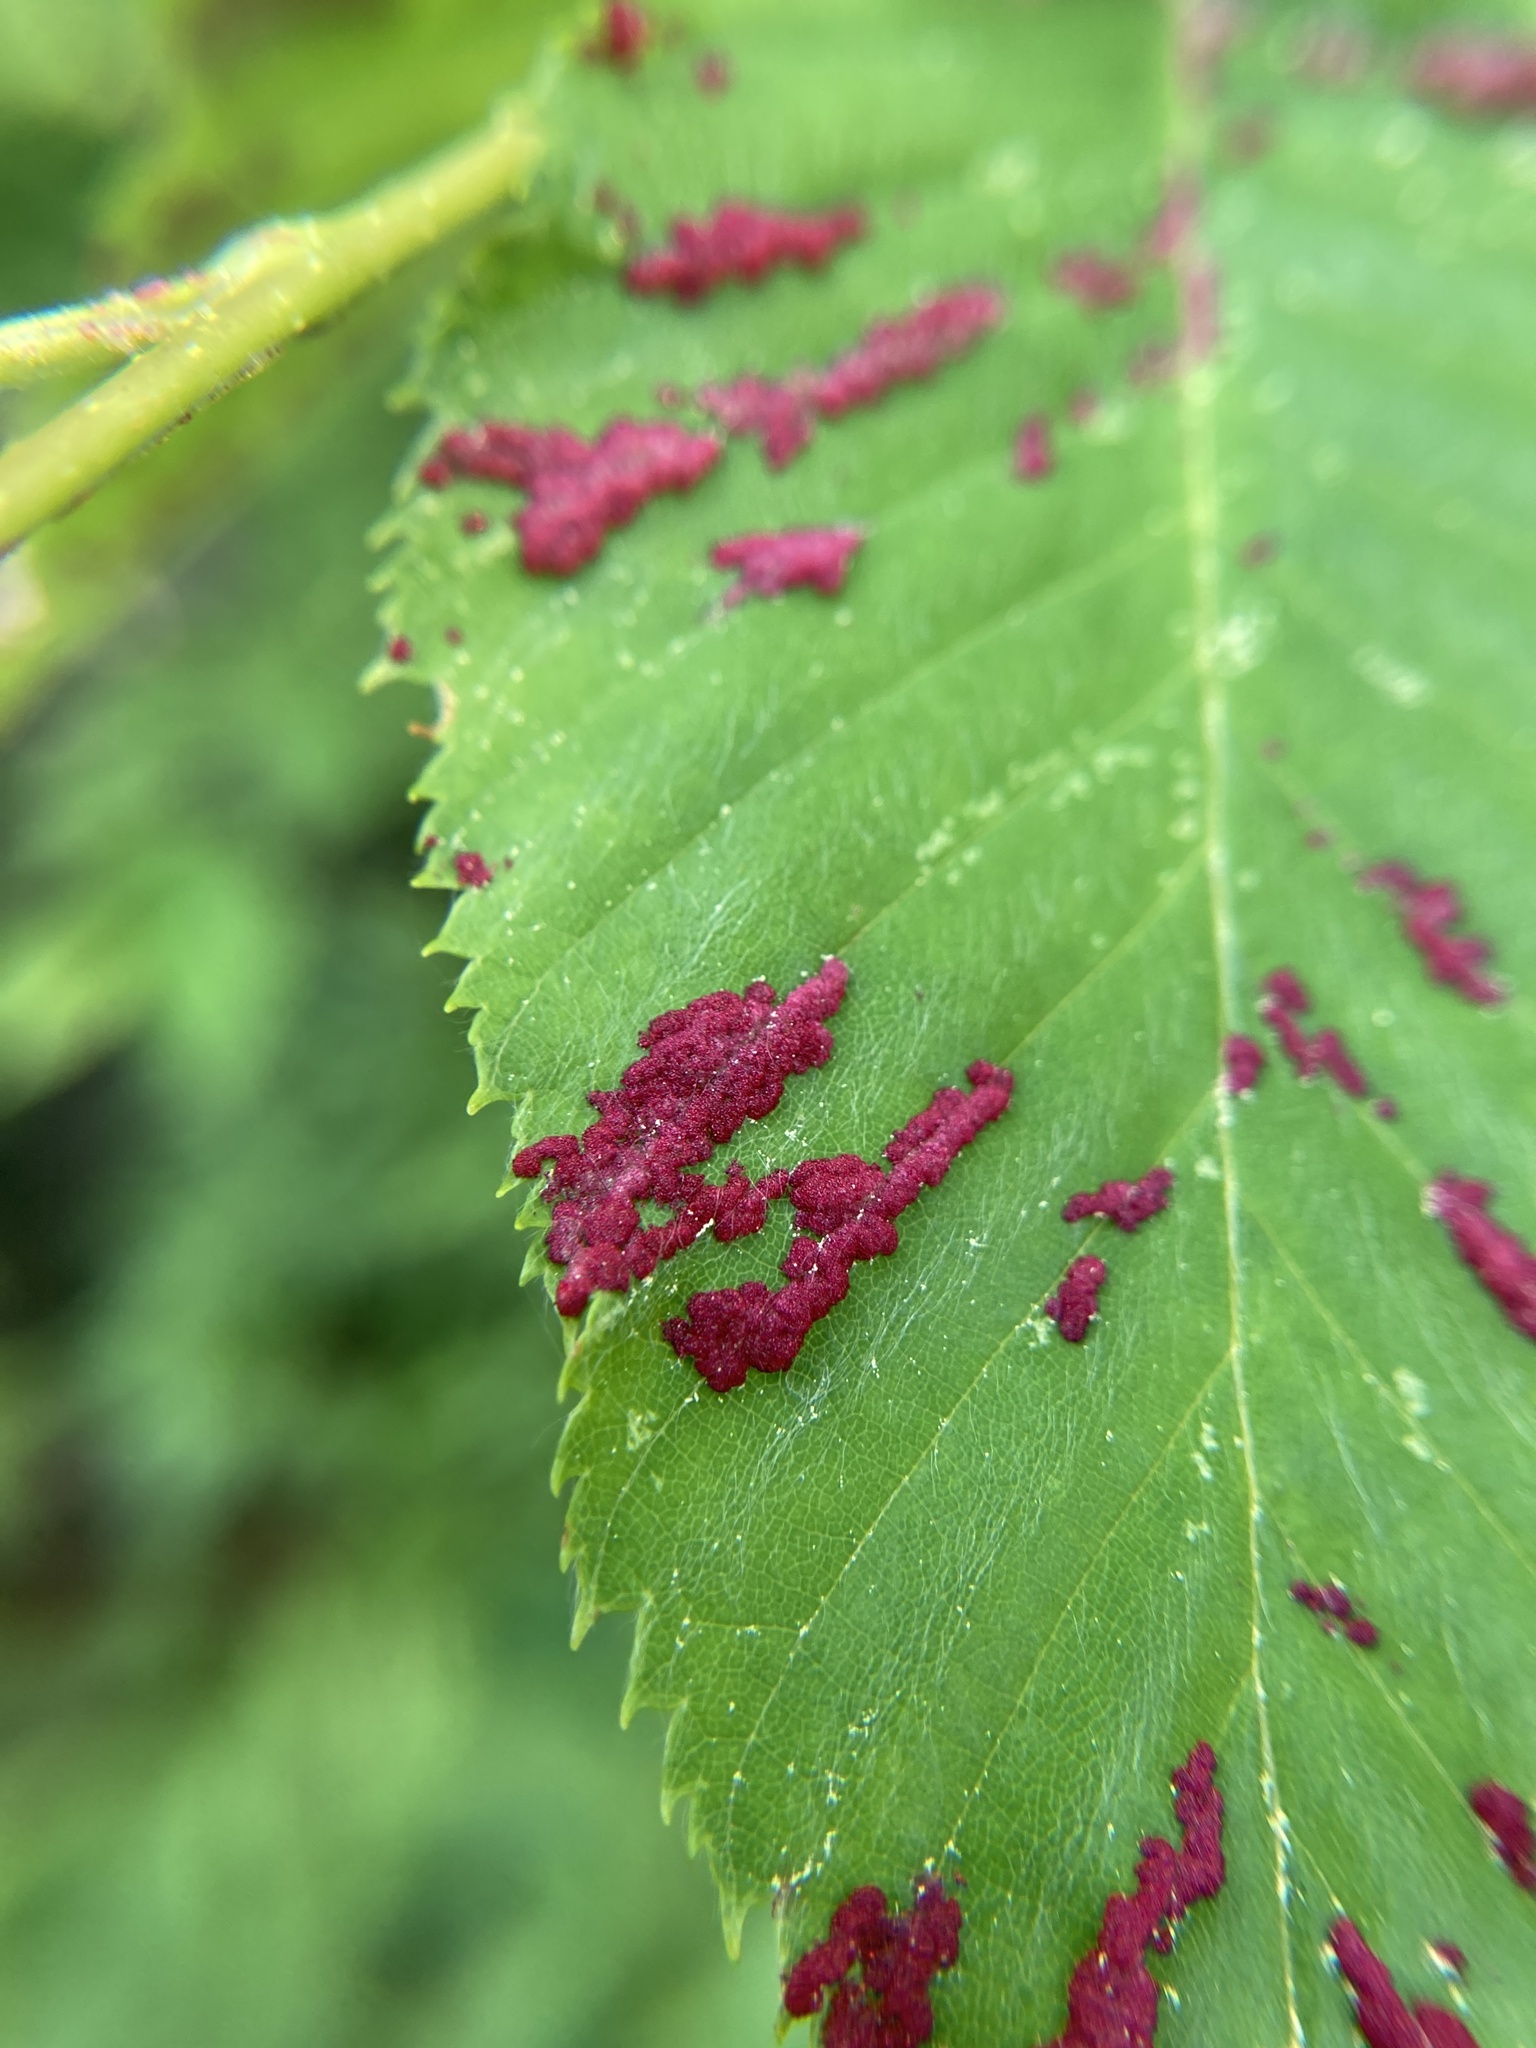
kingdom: Animalia
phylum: Arthropoda
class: Arachnida
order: Trombidiformes
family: Eriophyidae
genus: Acalitus
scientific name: Acalitus longisetosus
